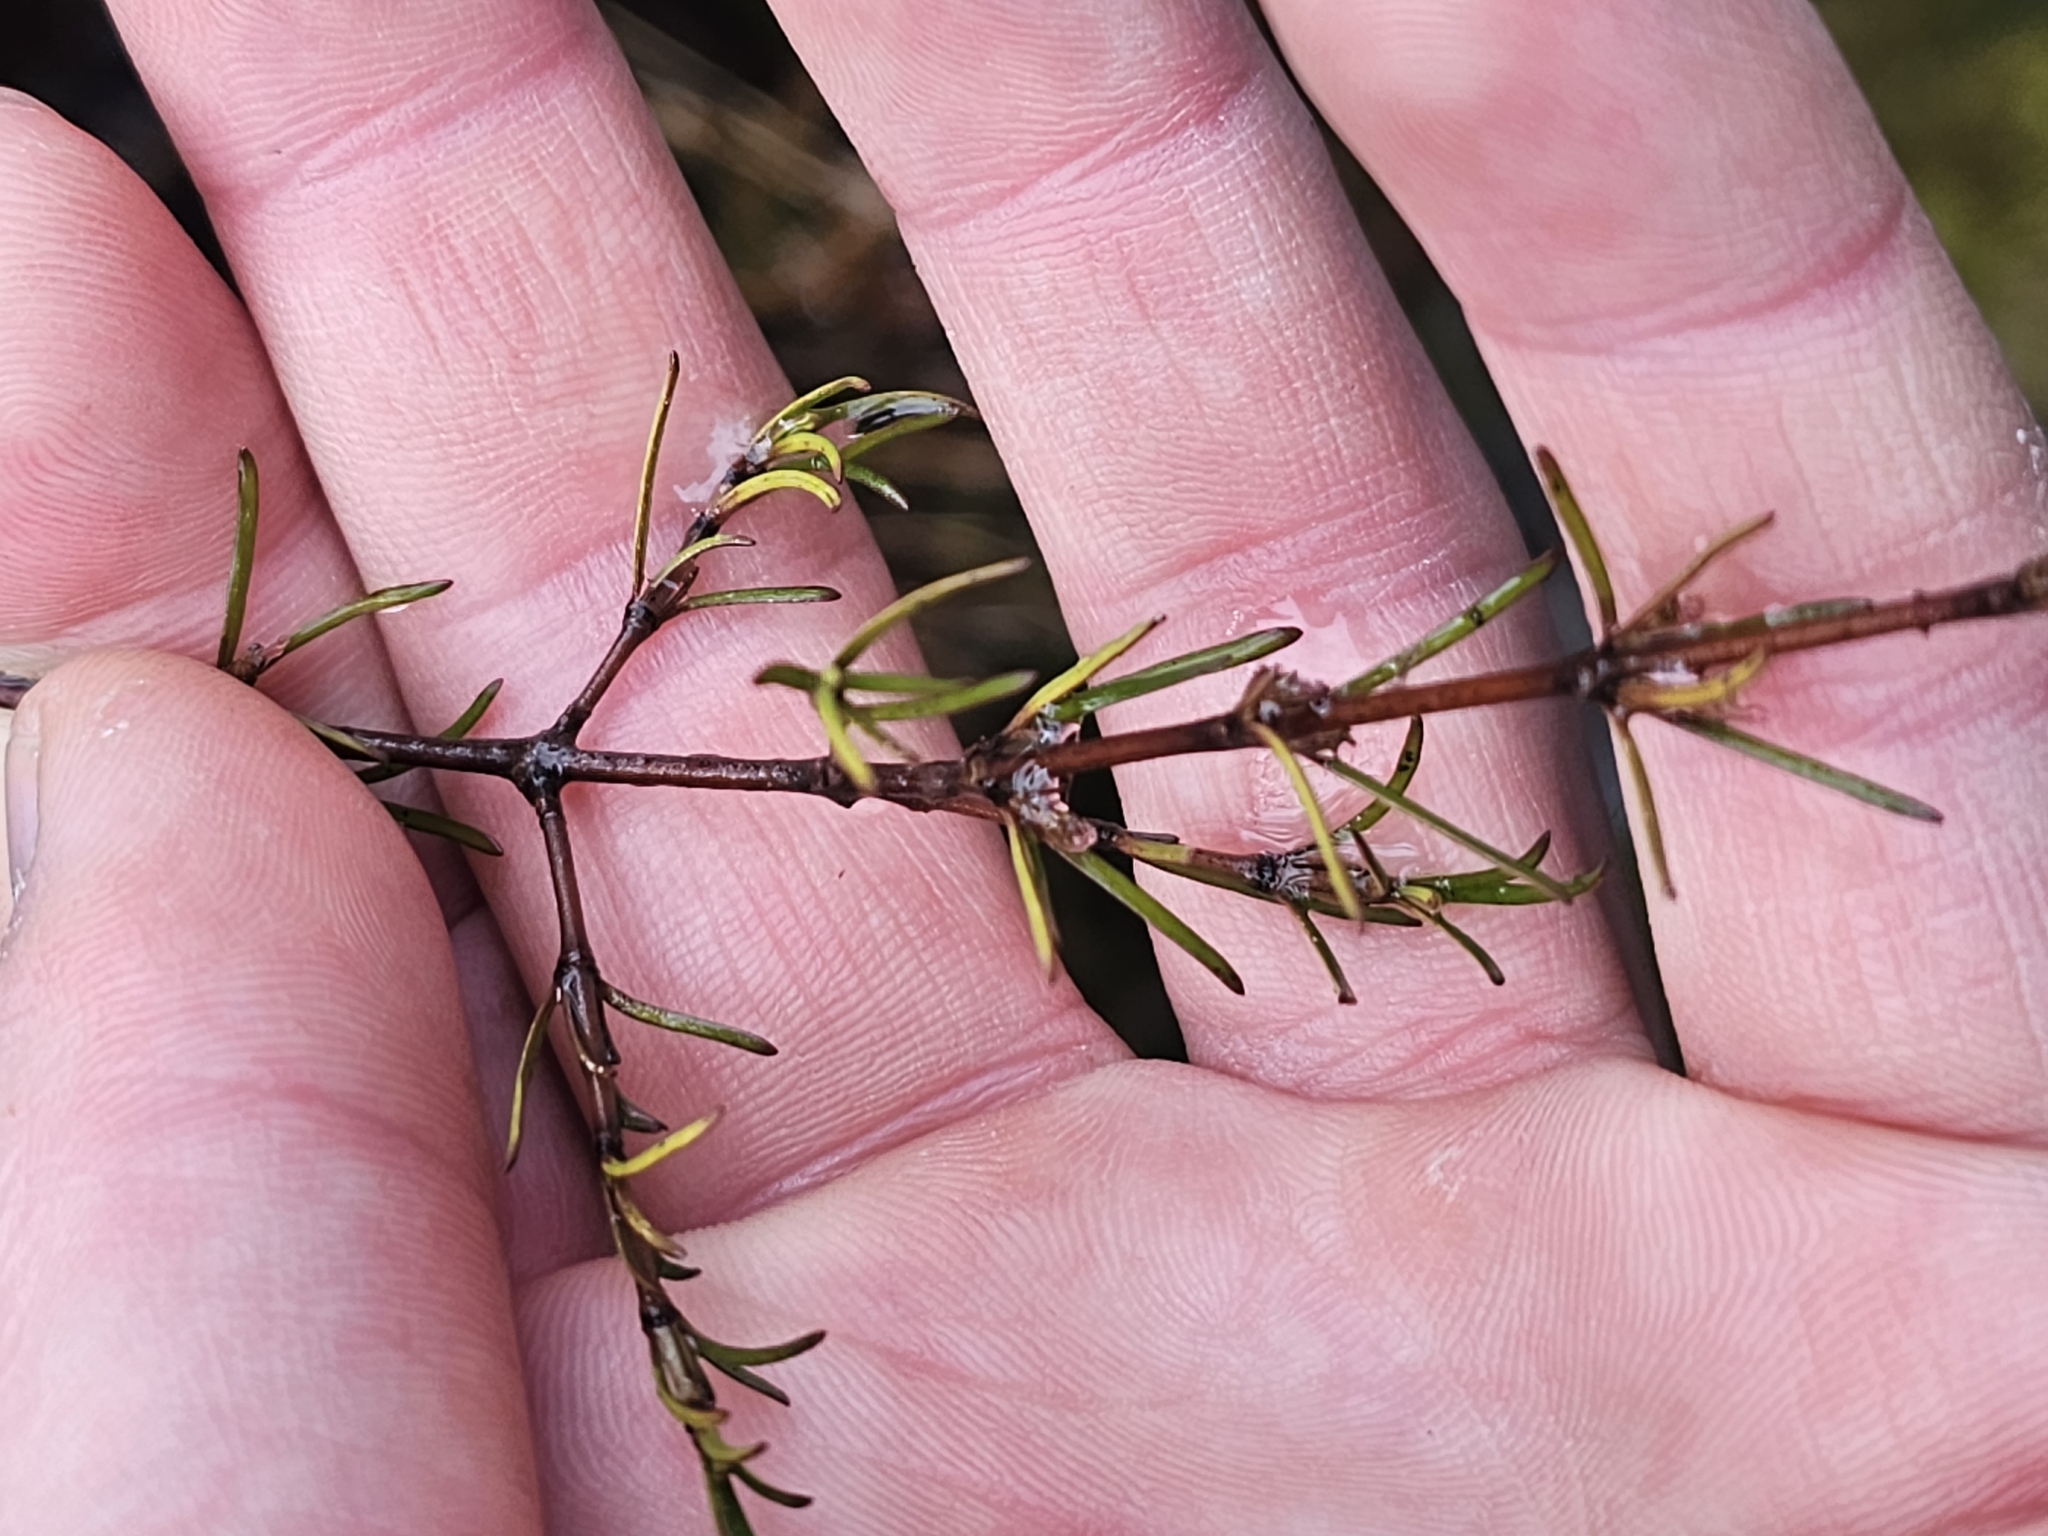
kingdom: Plantae
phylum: Tracheophyta
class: Magnoliopsida
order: Gentianales
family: Rubiaceae
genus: Coprosma
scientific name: Coprosma rugosa
